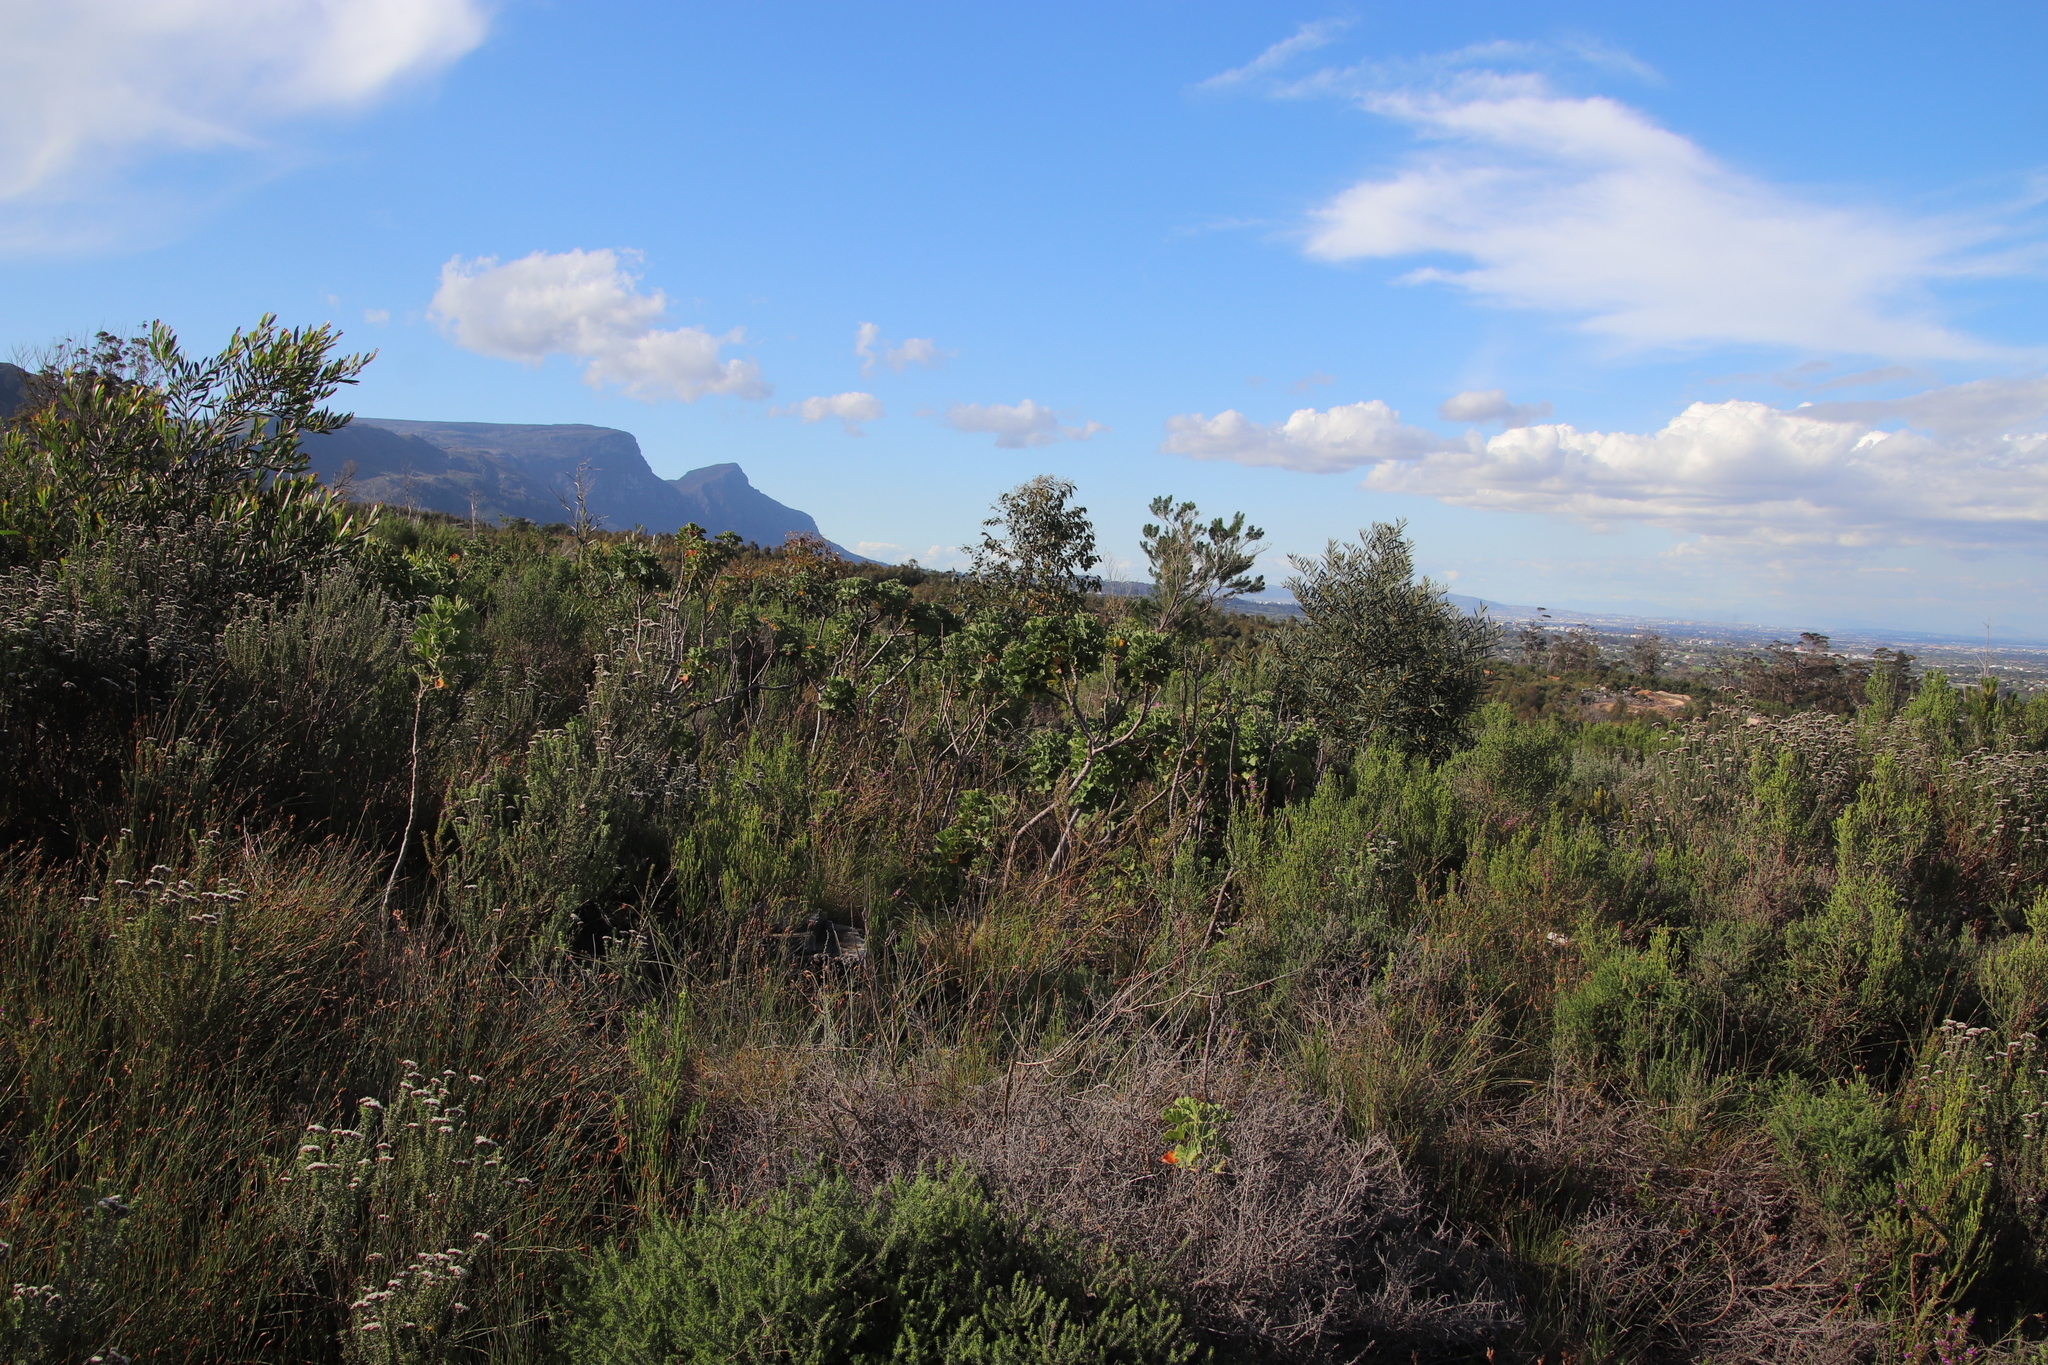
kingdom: Plantae
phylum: Tracheophyta
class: Magnoliopsida
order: Geraniales
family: Geraniaceae
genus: Pelargonium
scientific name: Pelargonium cucullatum
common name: Tree pelargonium
